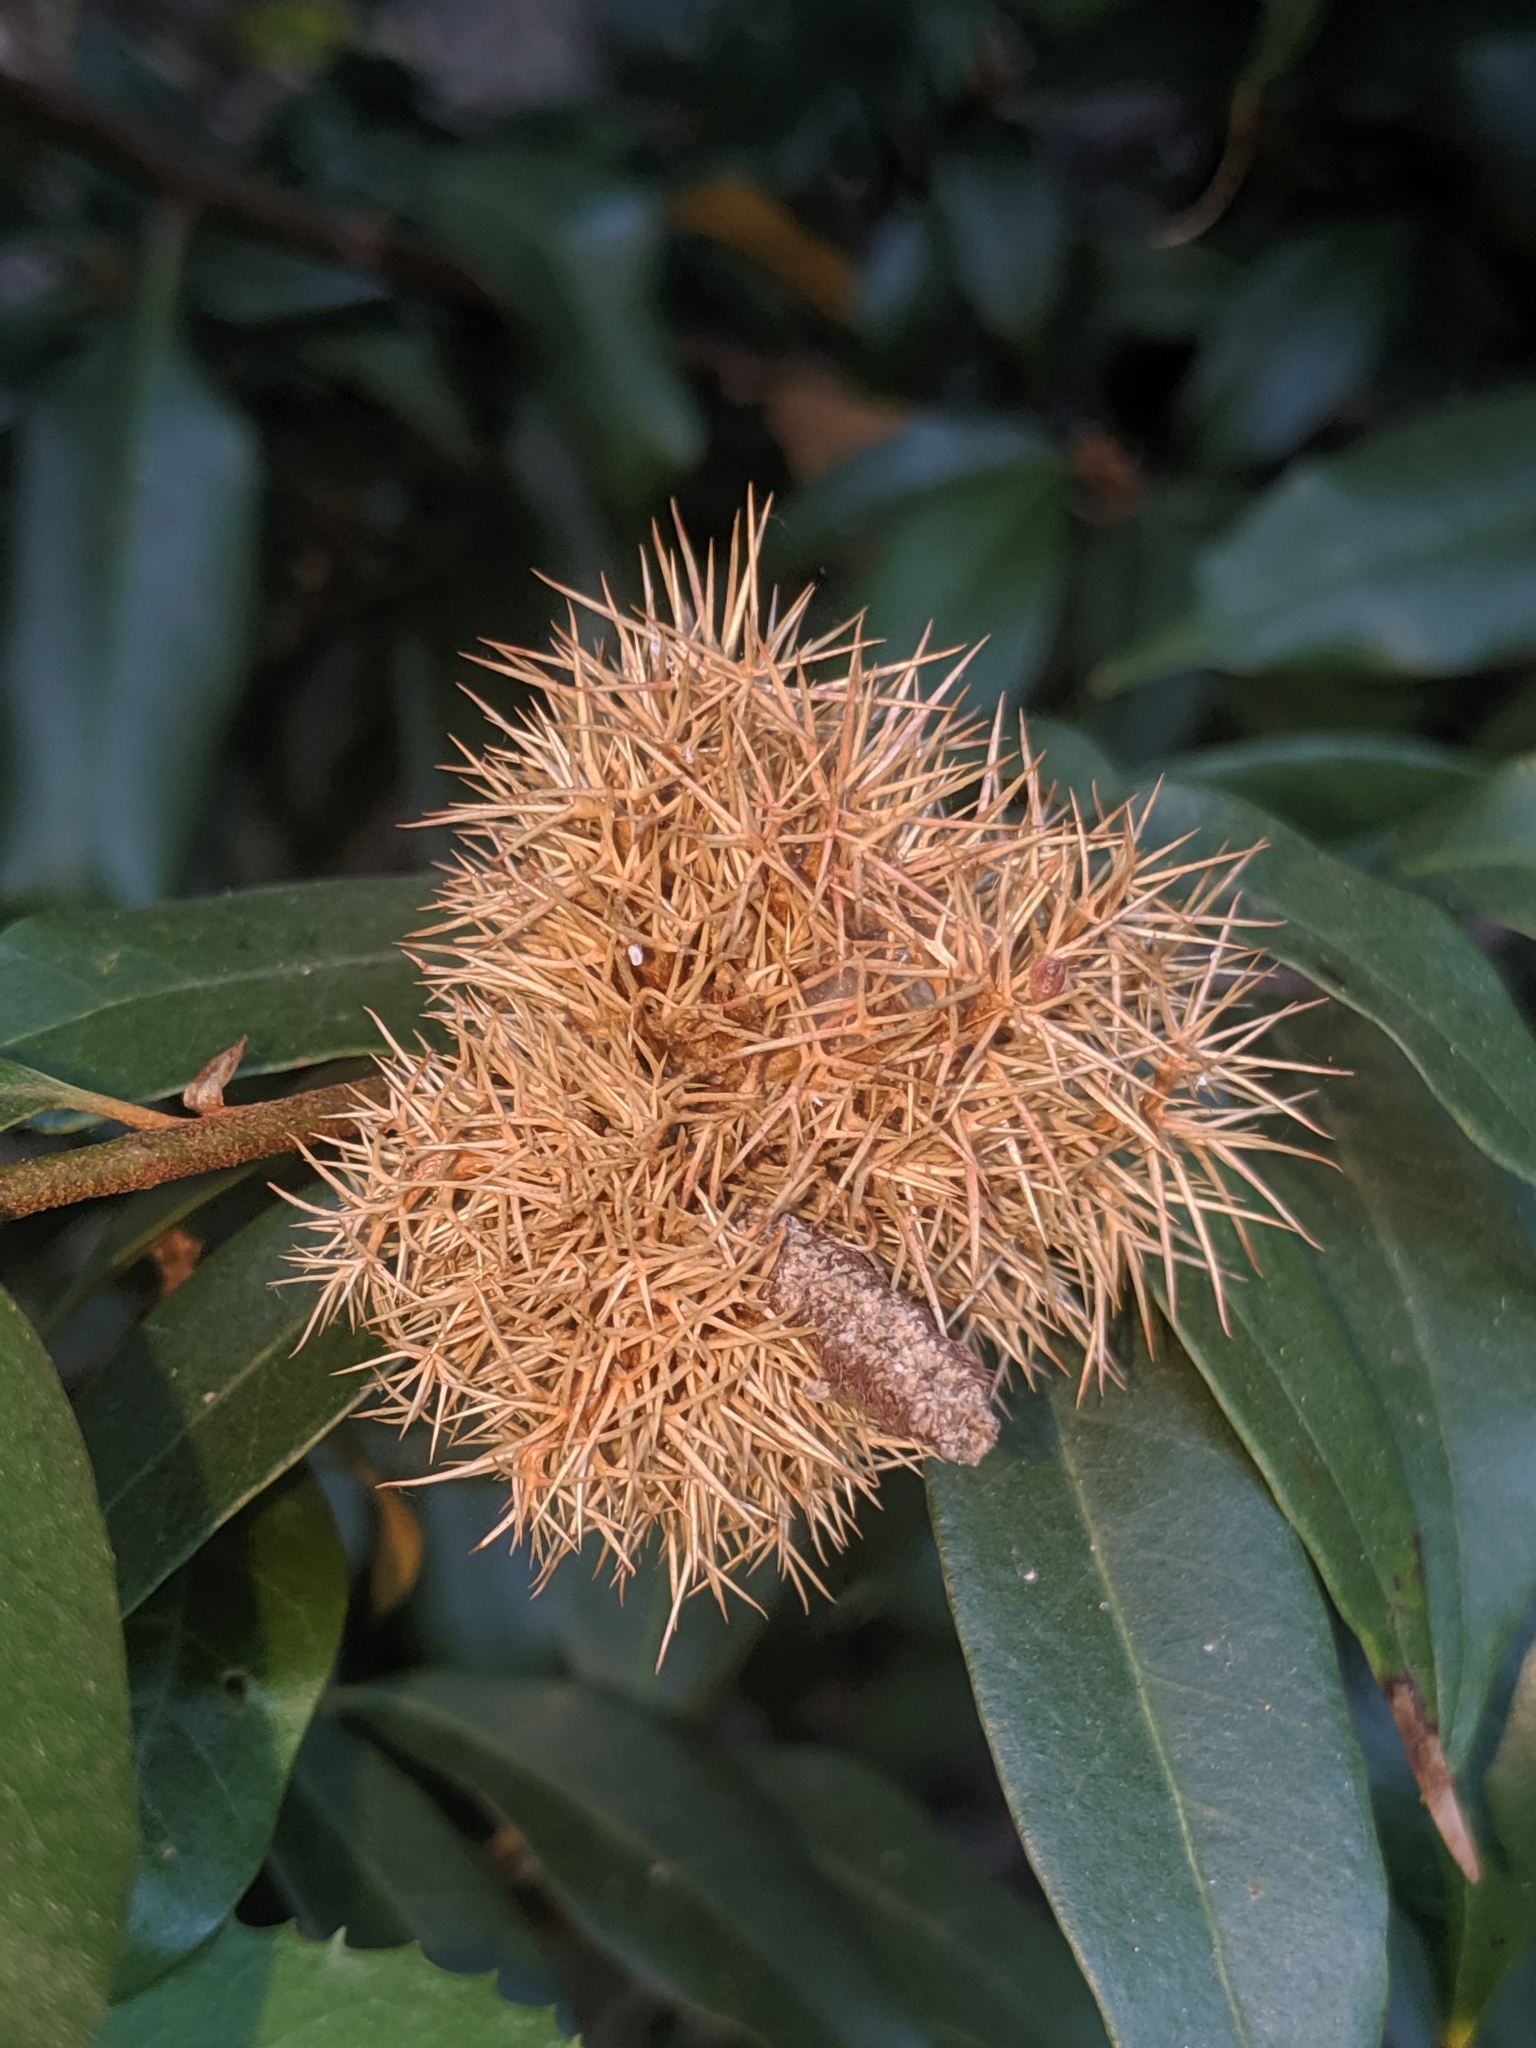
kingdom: Plantae
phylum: Tracheophyta
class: Magnoliopsida
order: Fagales
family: Fagaceae
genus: Chrysolepis
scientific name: Chrysolepis chrysophylla
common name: Giant chinquapin
